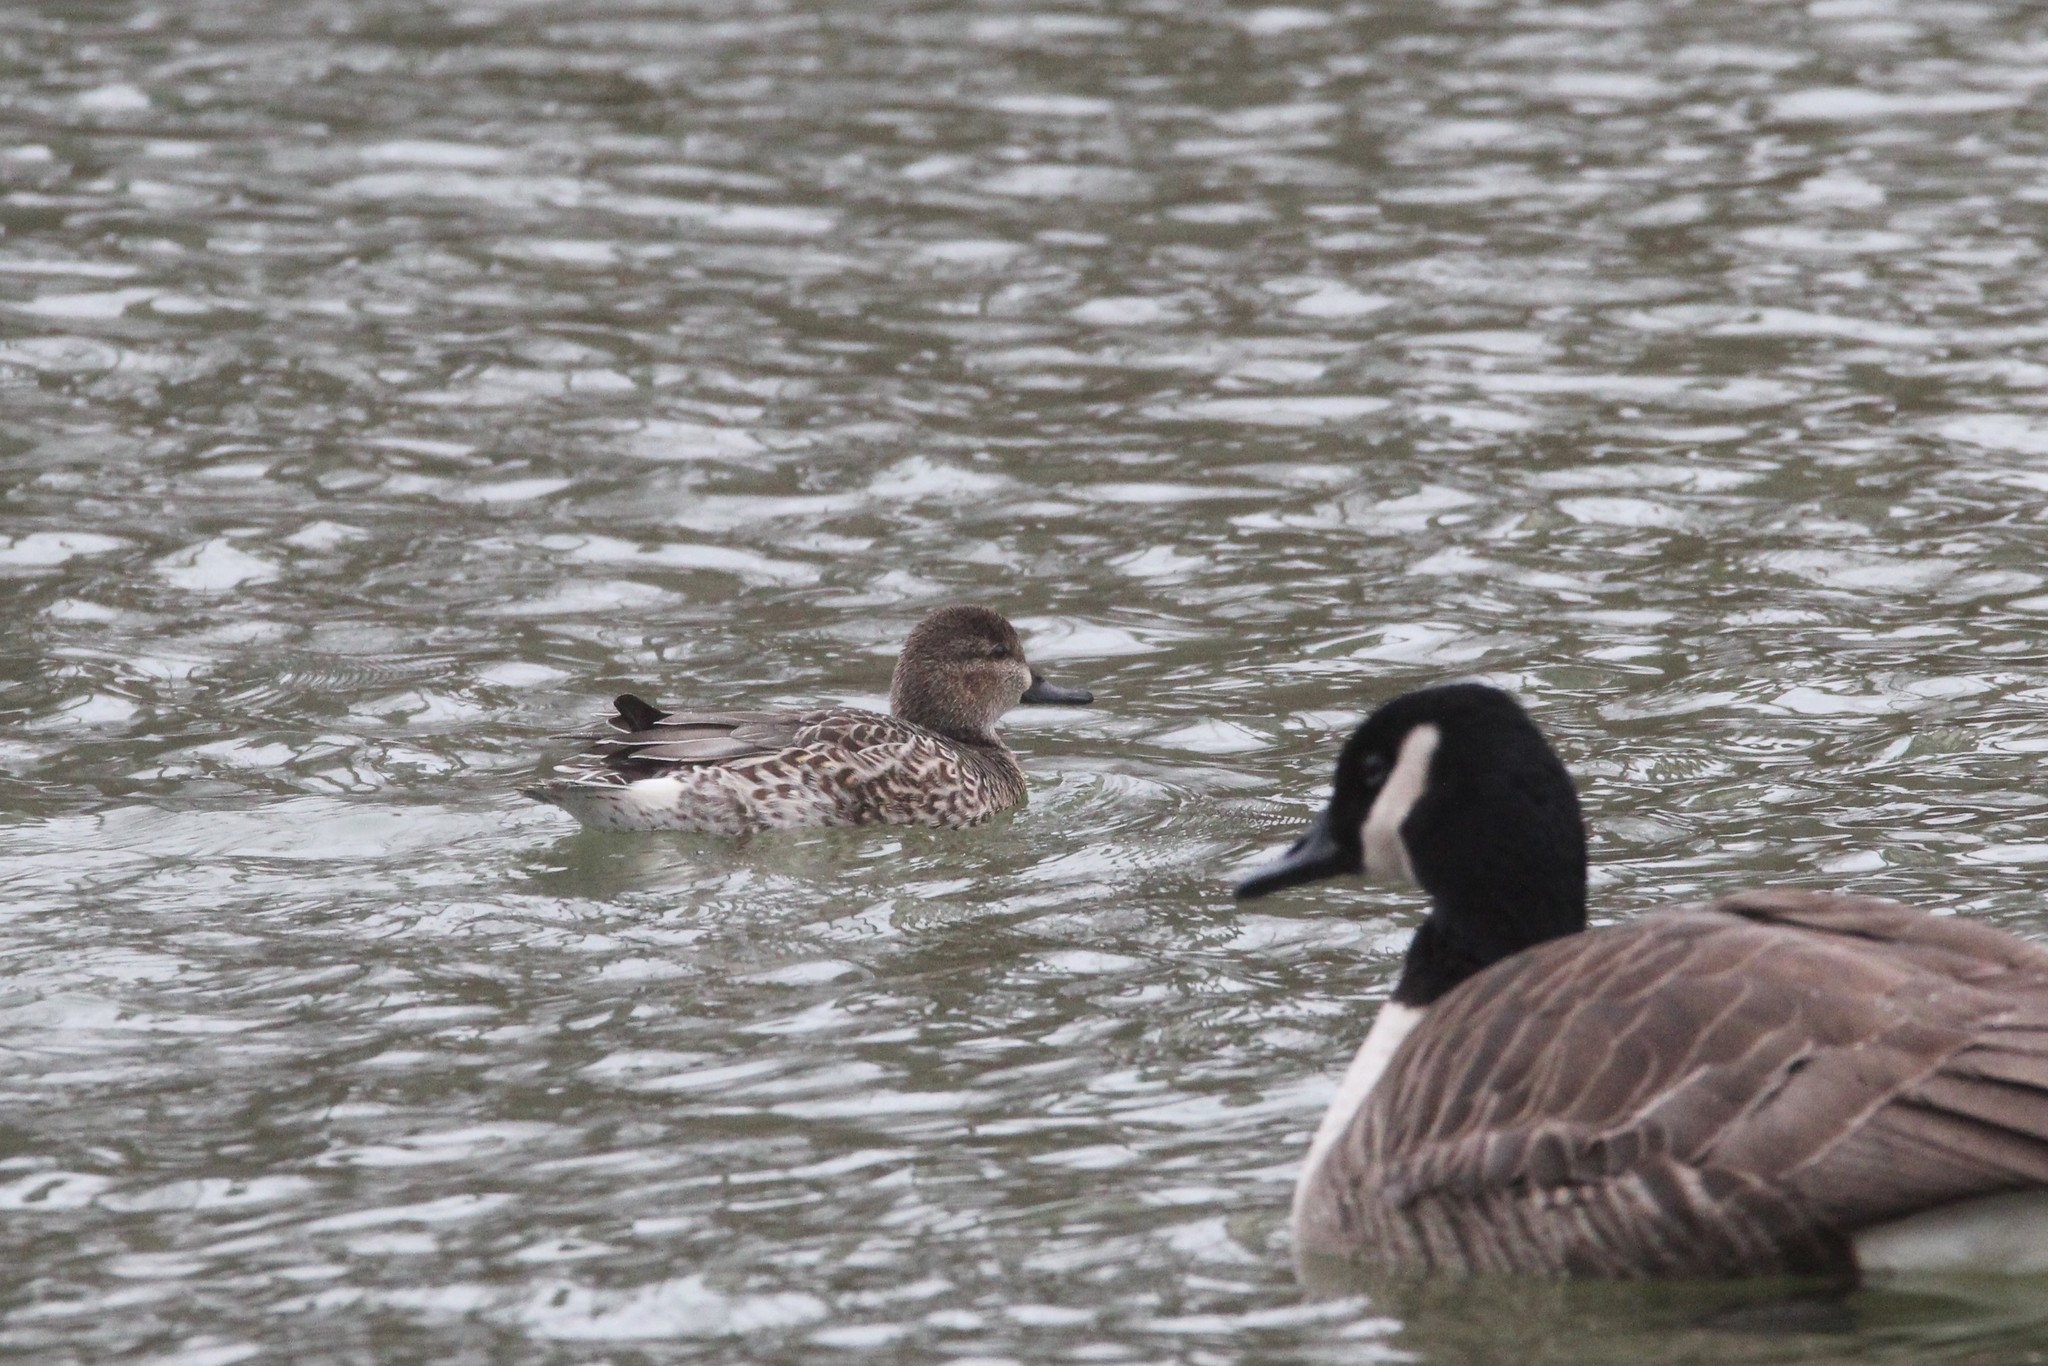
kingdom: Animalia
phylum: Chordata
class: Aves
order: Anseriformes
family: Anatidae
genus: Anas
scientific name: Anas carolinensis
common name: Green-winged teal
